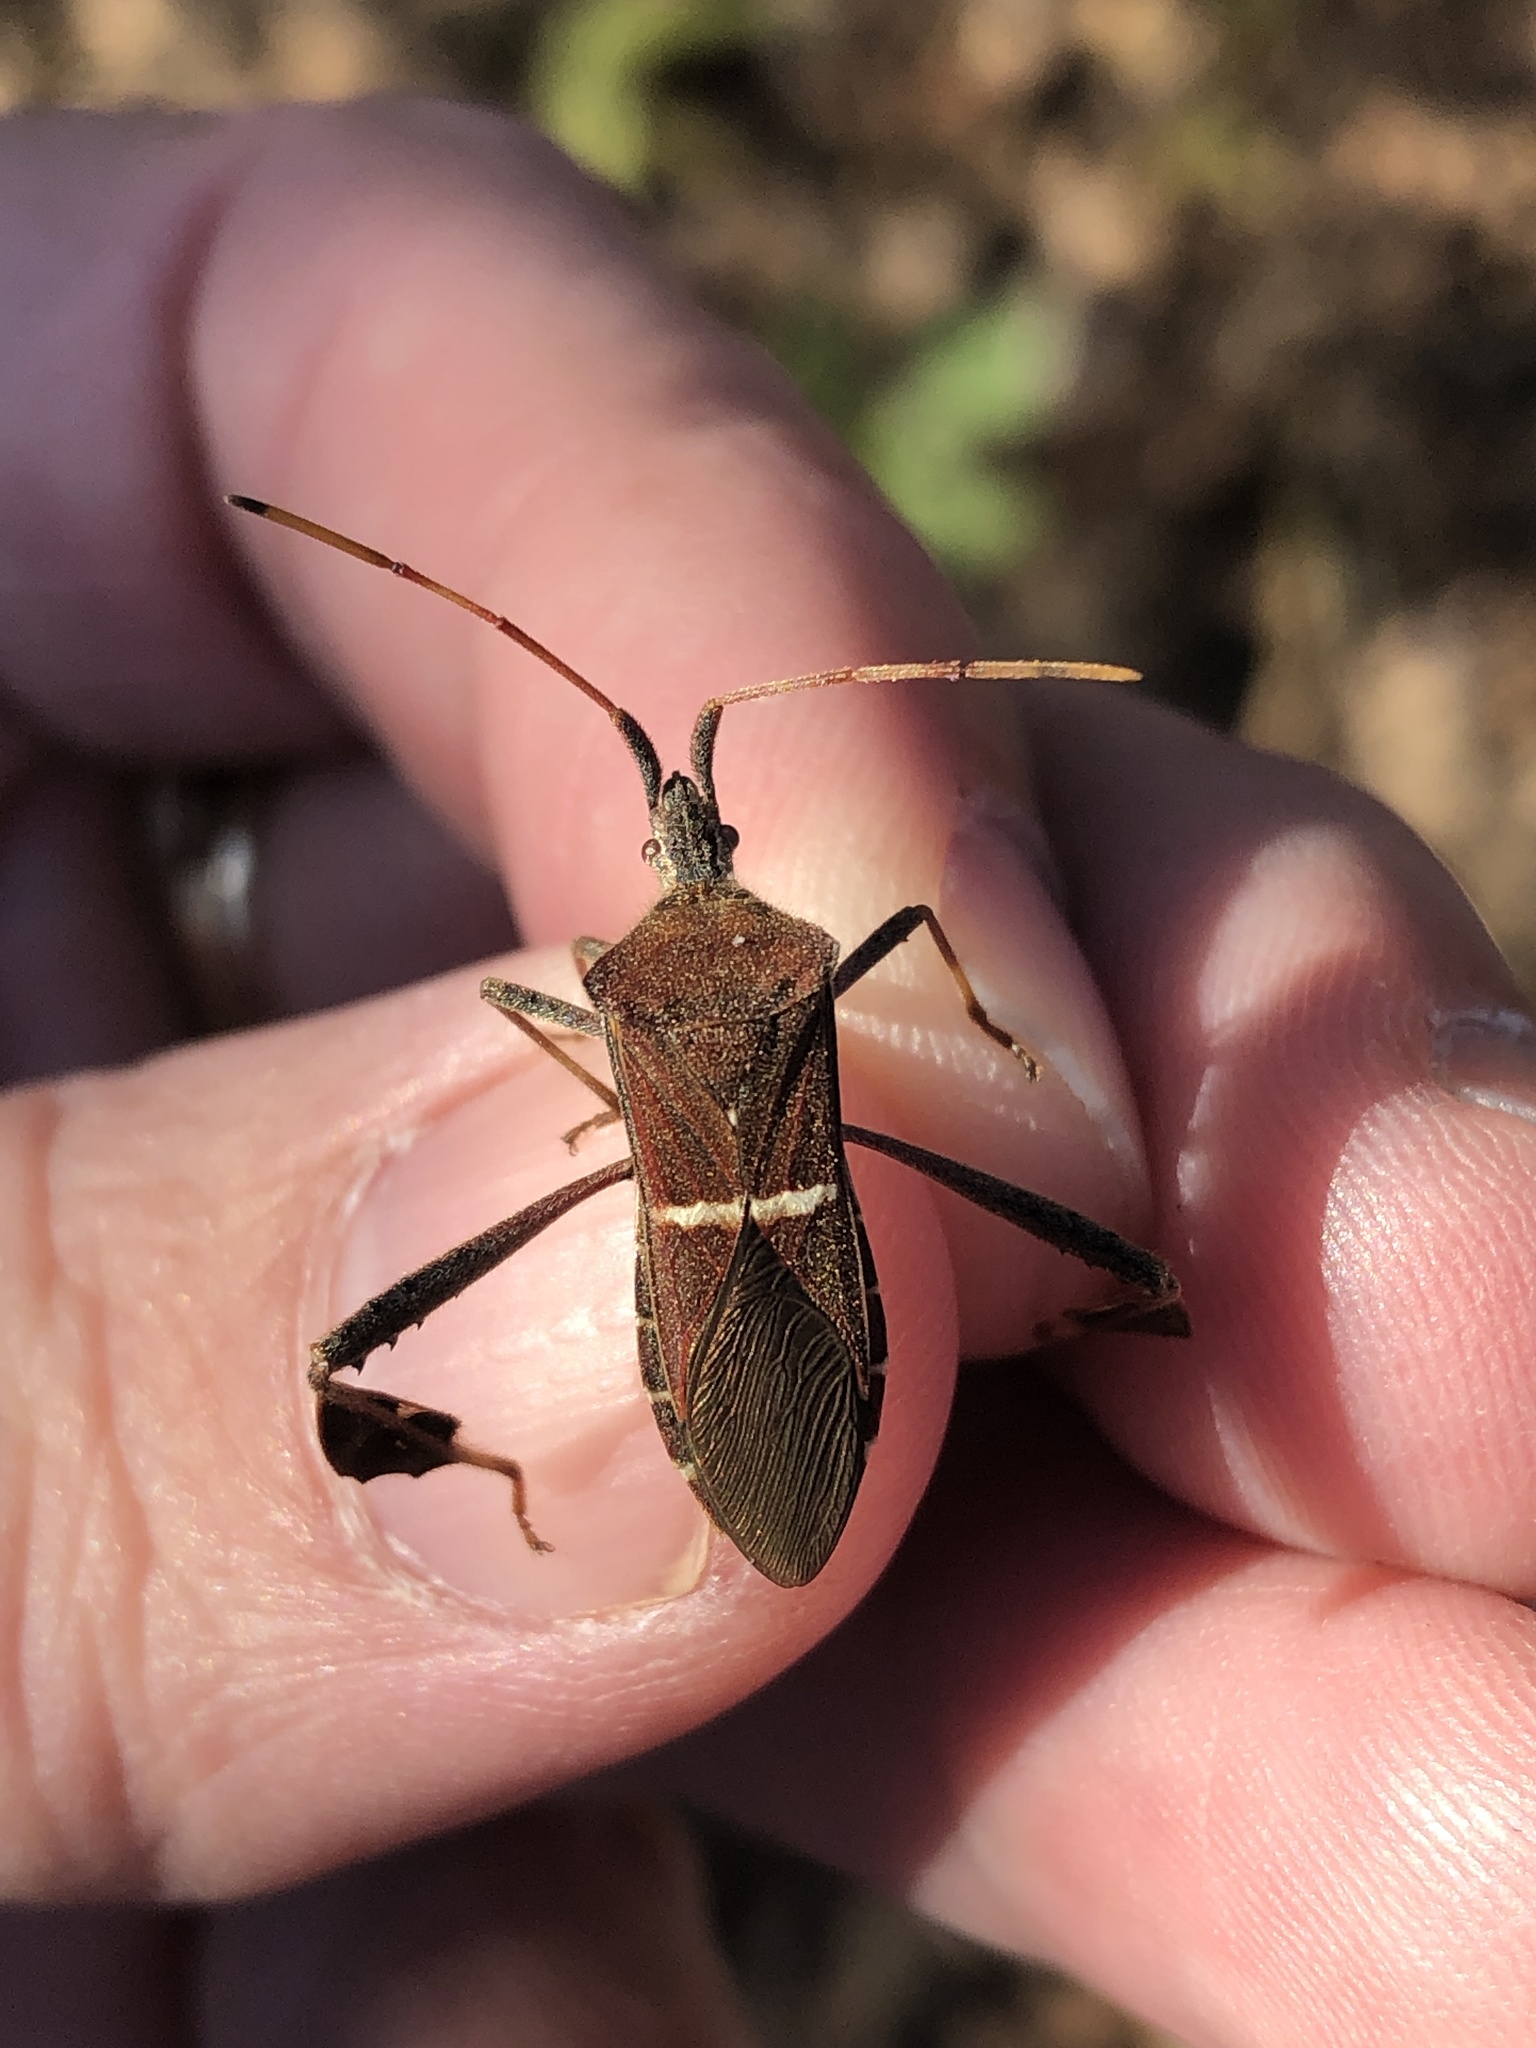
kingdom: Animalia
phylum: Arthropoda
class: Insecta
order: Hemiptera
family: Coreidae
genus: Leptoglossus
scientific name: Leptoglossus phyllopus
